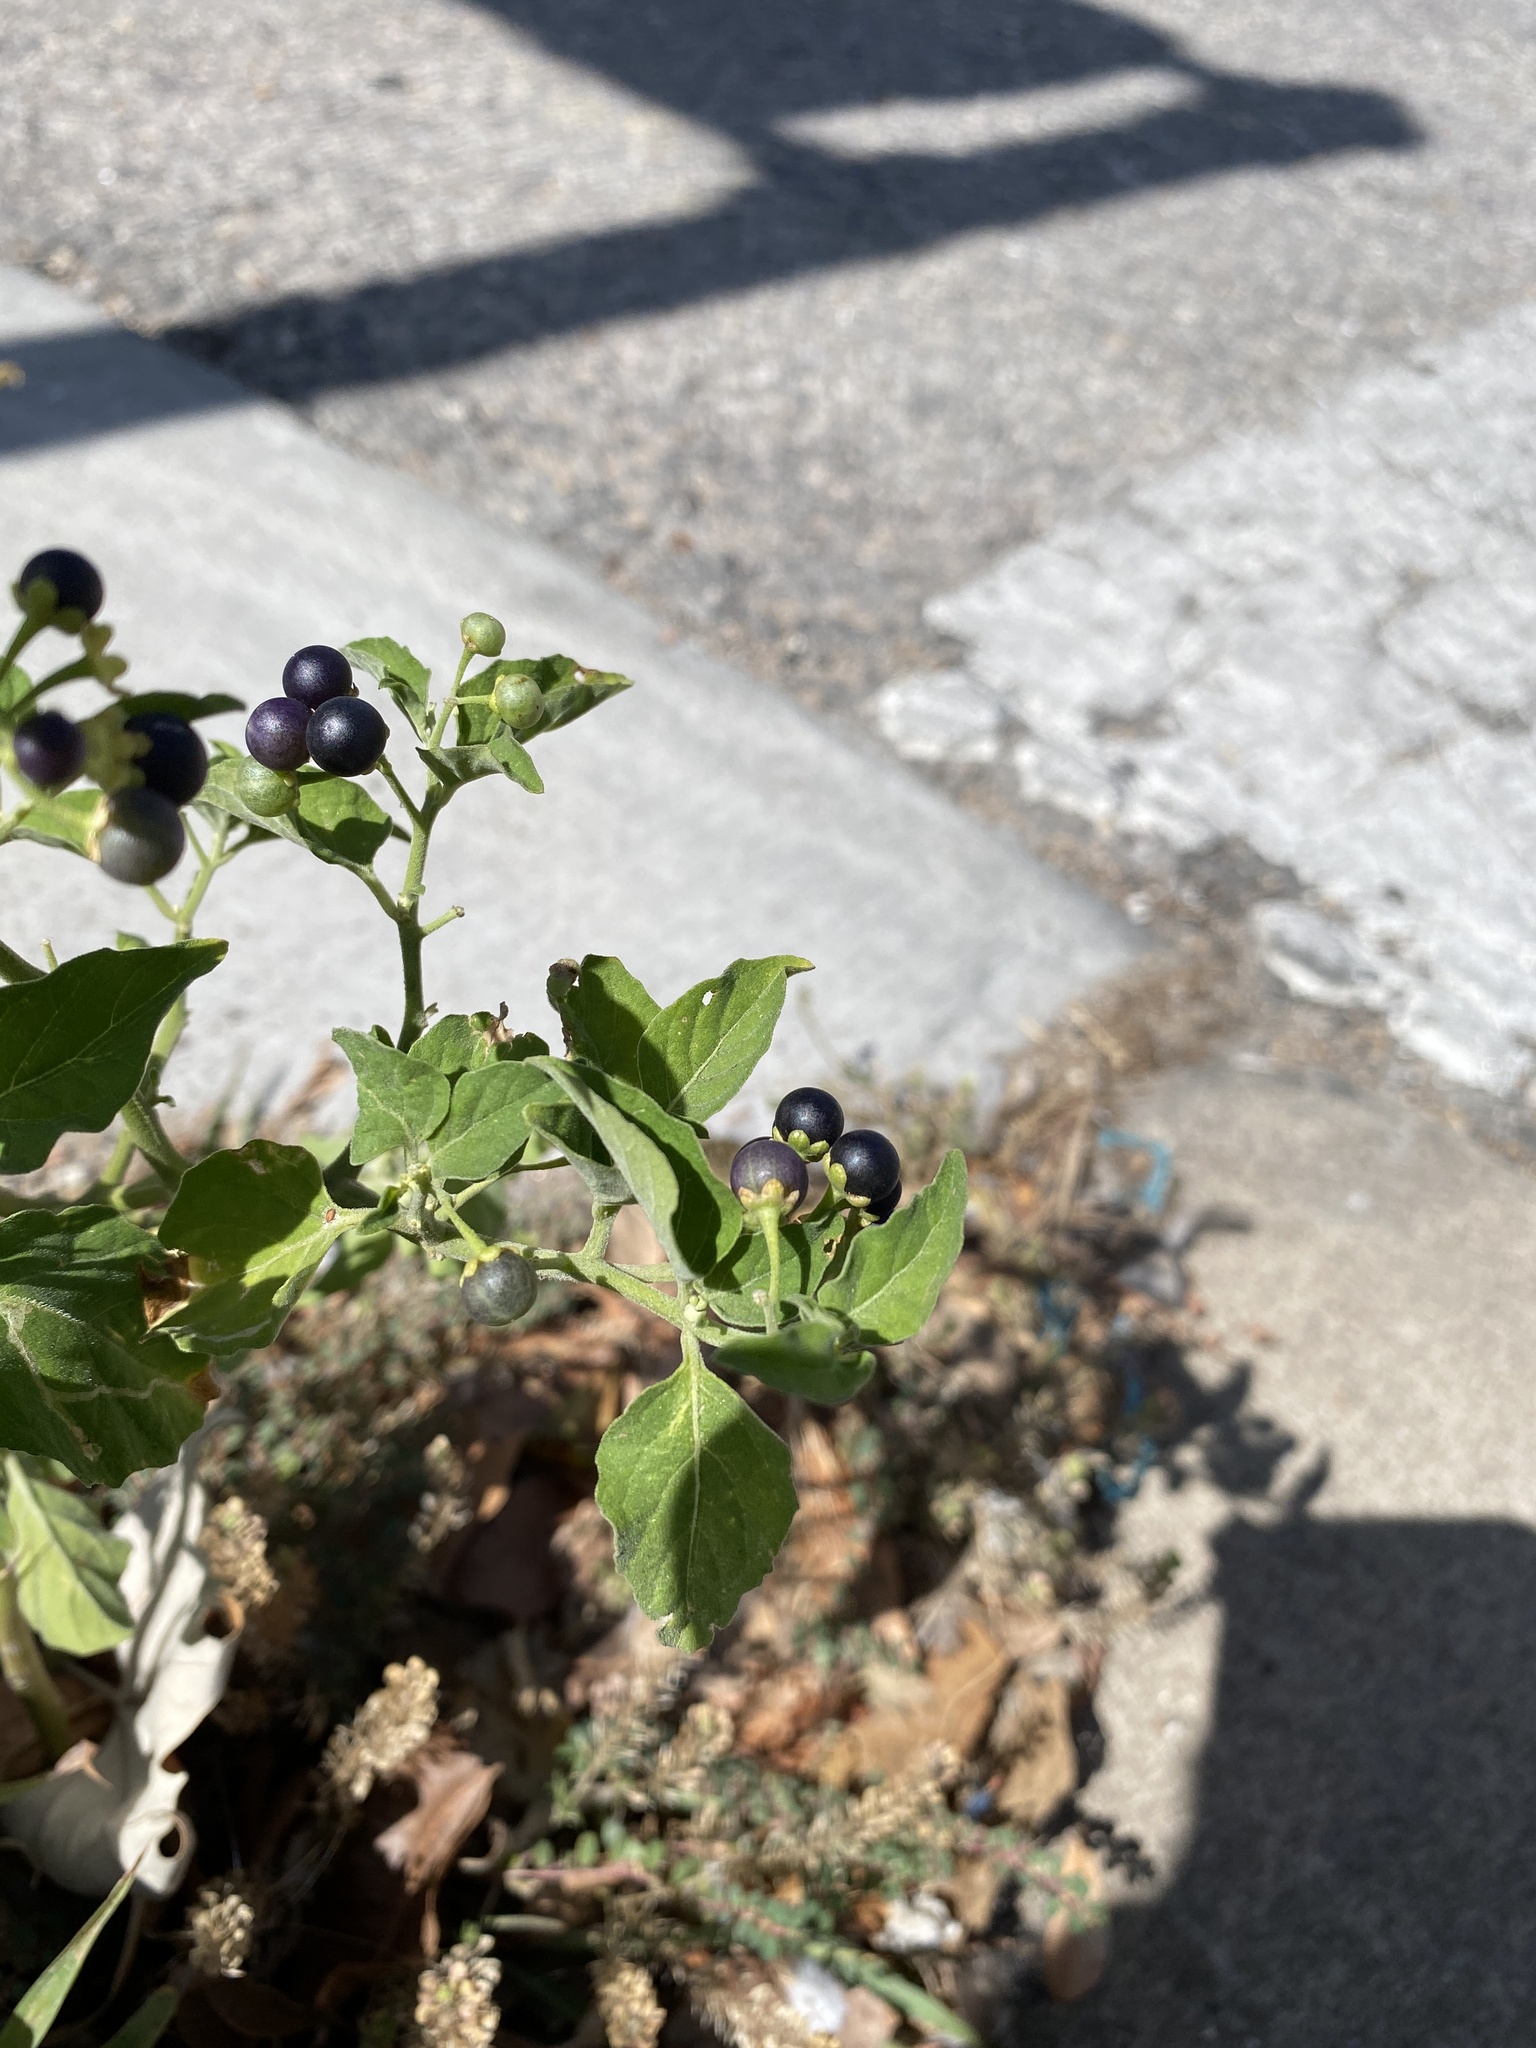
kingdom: Plantae
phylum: Tracheophyta
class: Magnoliopsida
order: Solanales
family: Solanaceae
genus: Solanum
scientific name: Solanum emulans
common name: Eastern black nightshade
